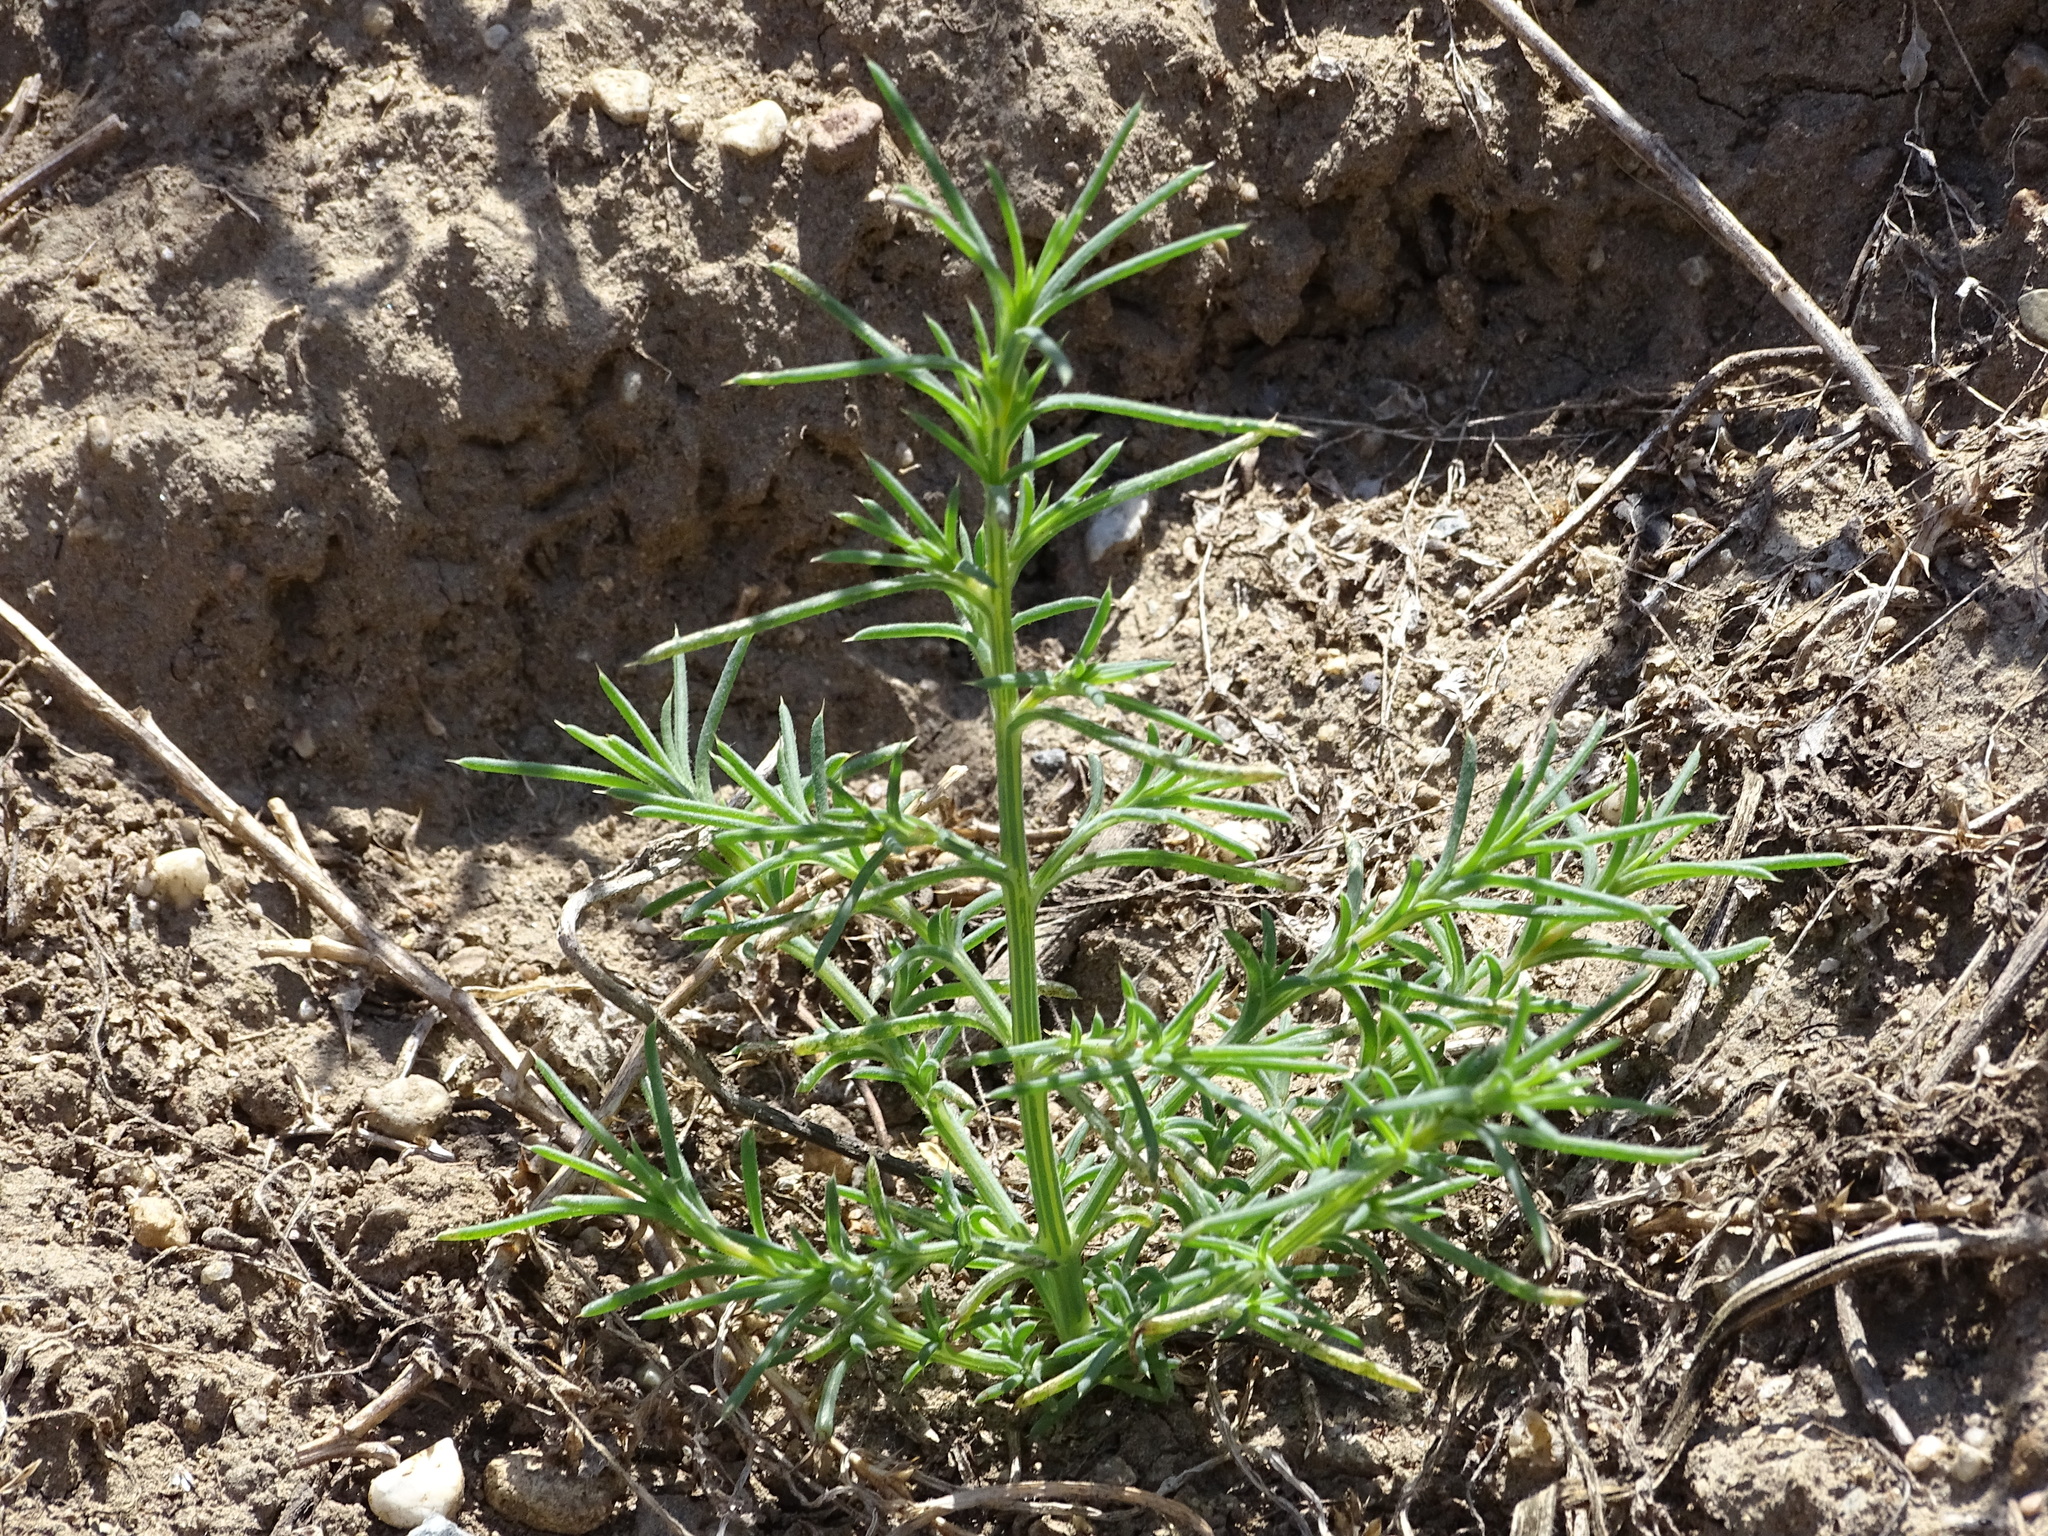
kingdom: Plantae
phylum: Tracheophyta
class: Magnoliopsida
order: Caryophyllales
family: Amaranthaceae
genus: Salsola
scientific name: Salsola
